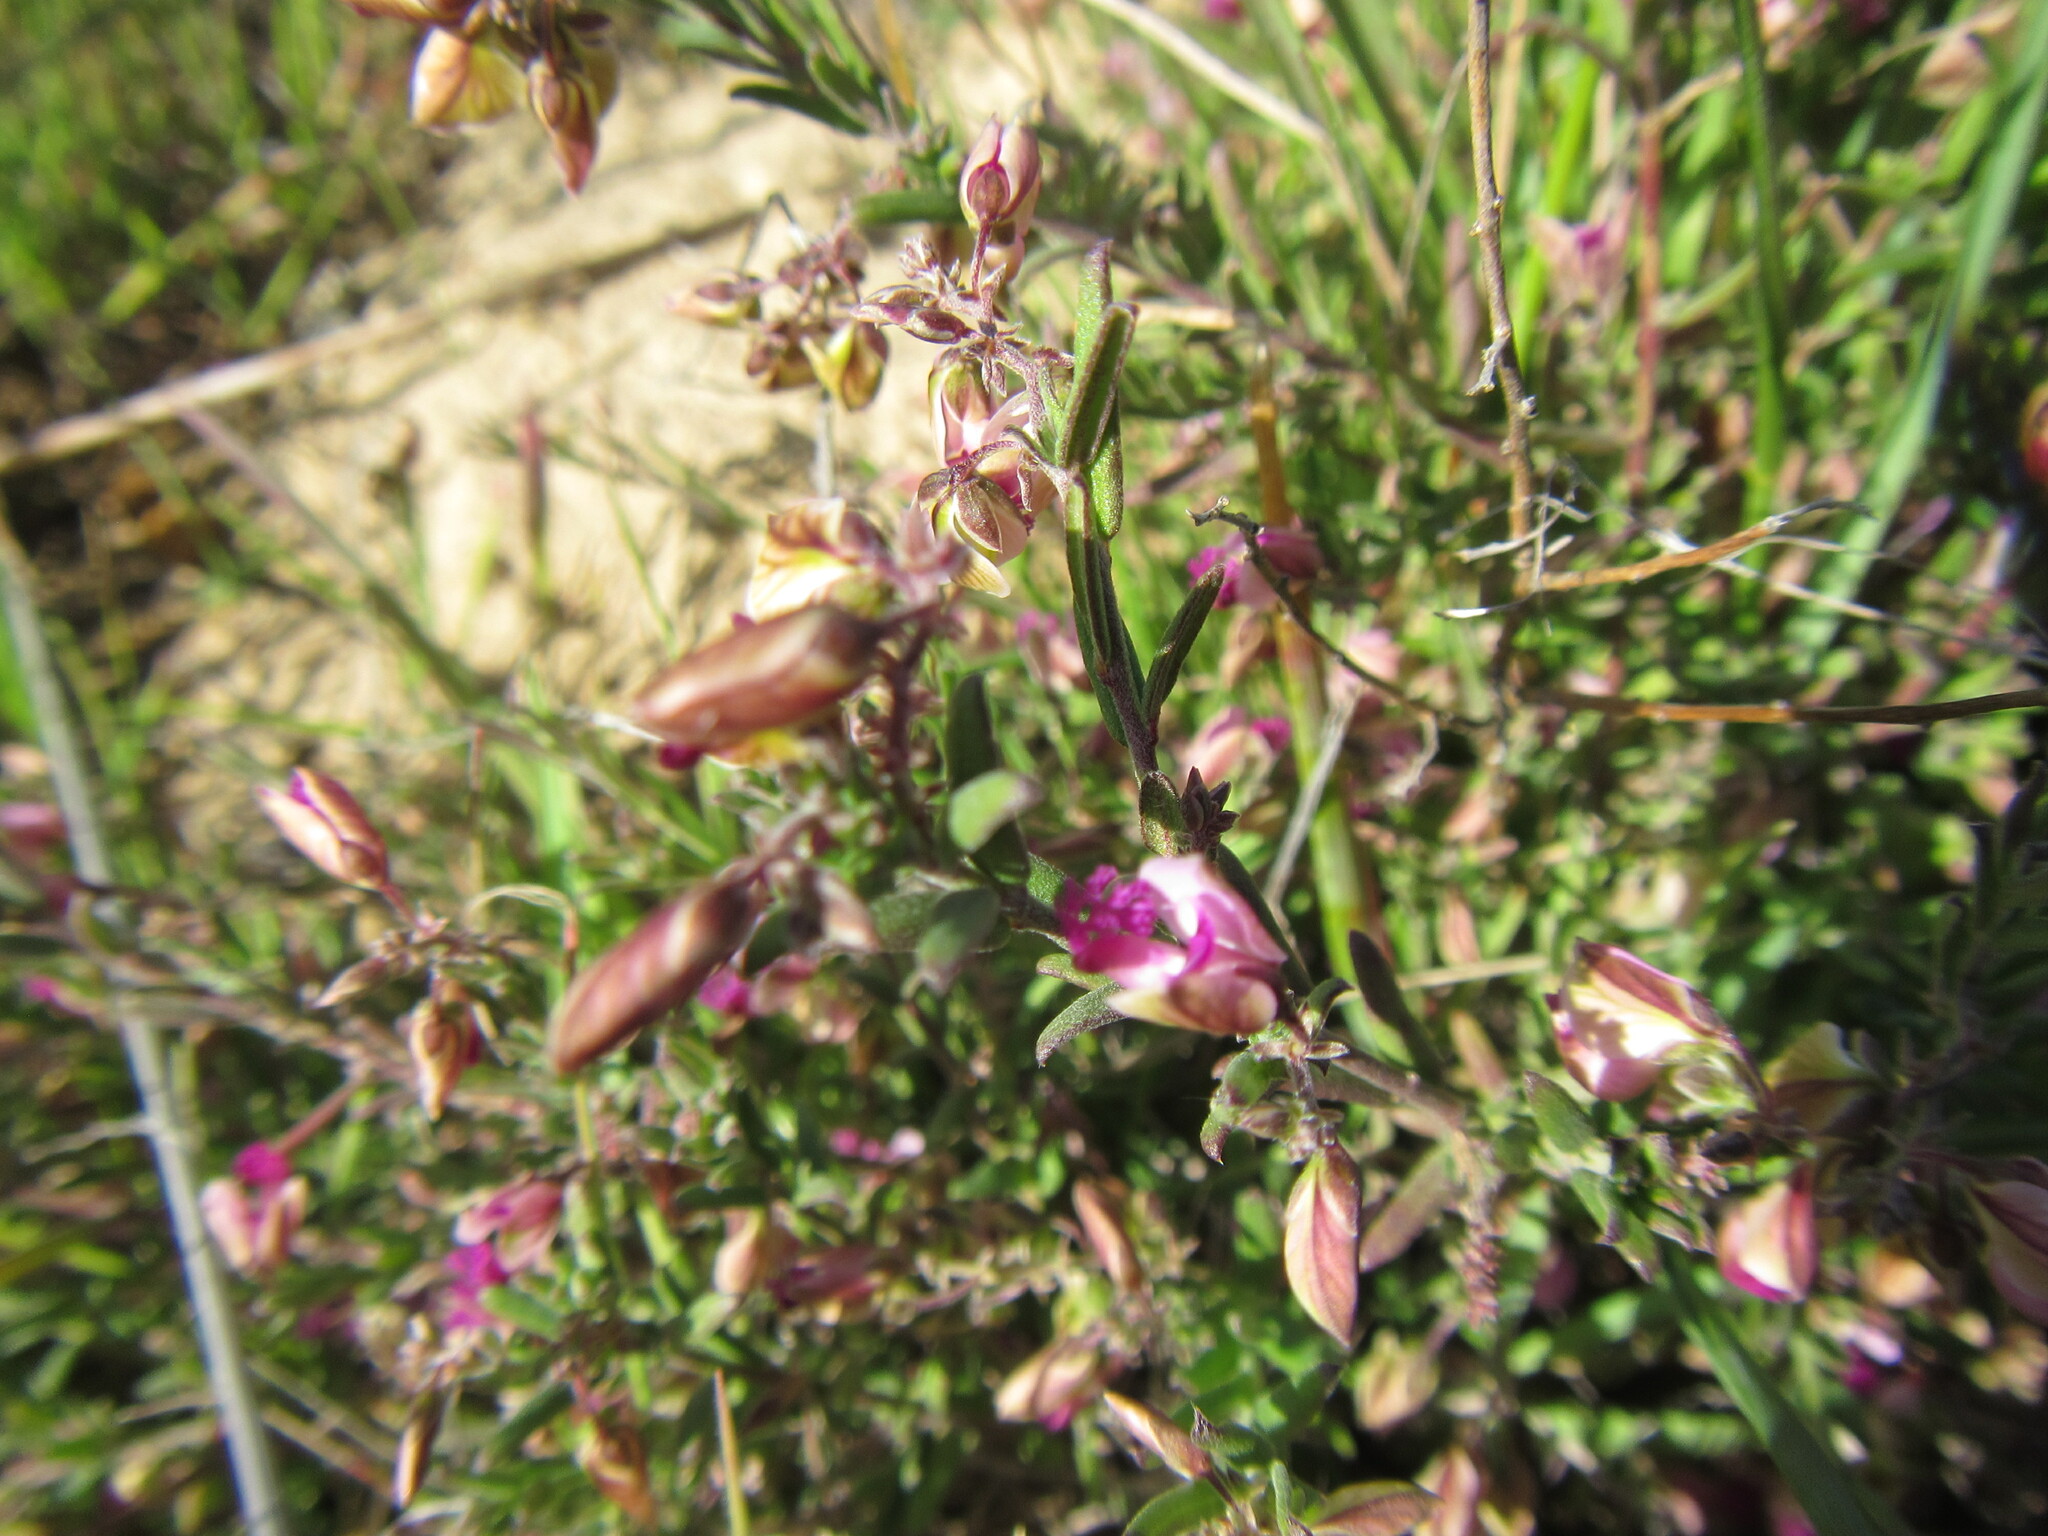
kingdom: Plantae
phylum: Tracheophyta
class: Magnoliopsida
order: Fabales
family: Polygalaceae
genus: Polygala
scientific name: Polygala scabra
